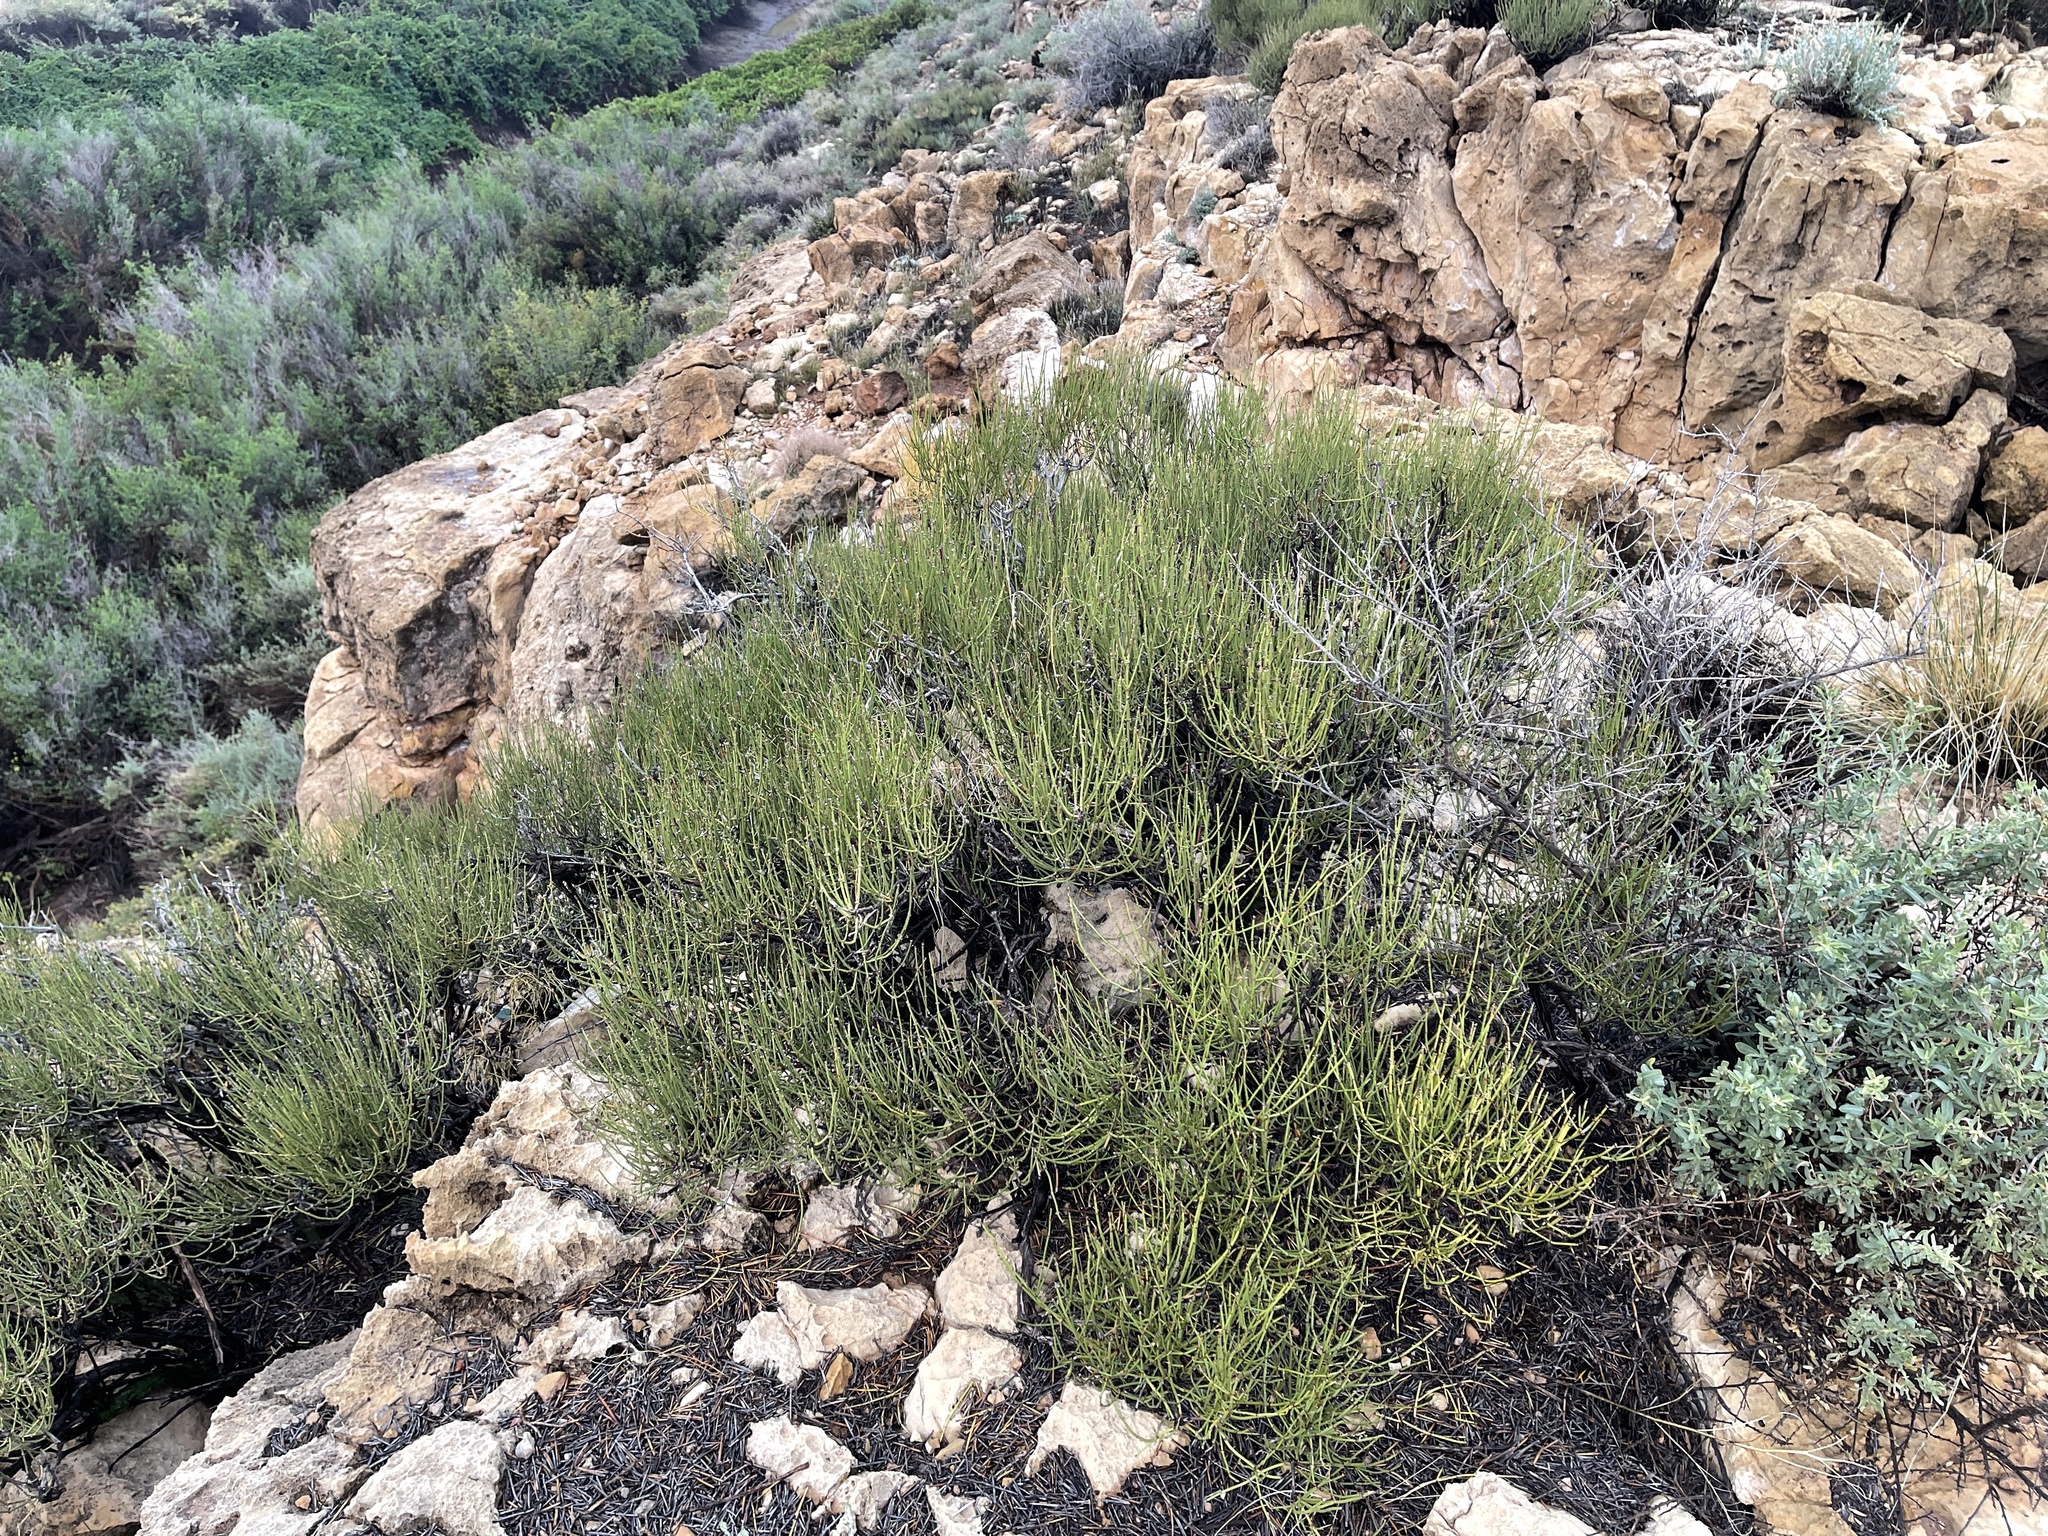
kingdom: Plantae
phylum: Tracheophyta
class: Gnetopsida
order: Ephedrales
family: Ephedraceae
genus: Ephedra
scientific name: Ephedra viridis
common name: Green ephedra
